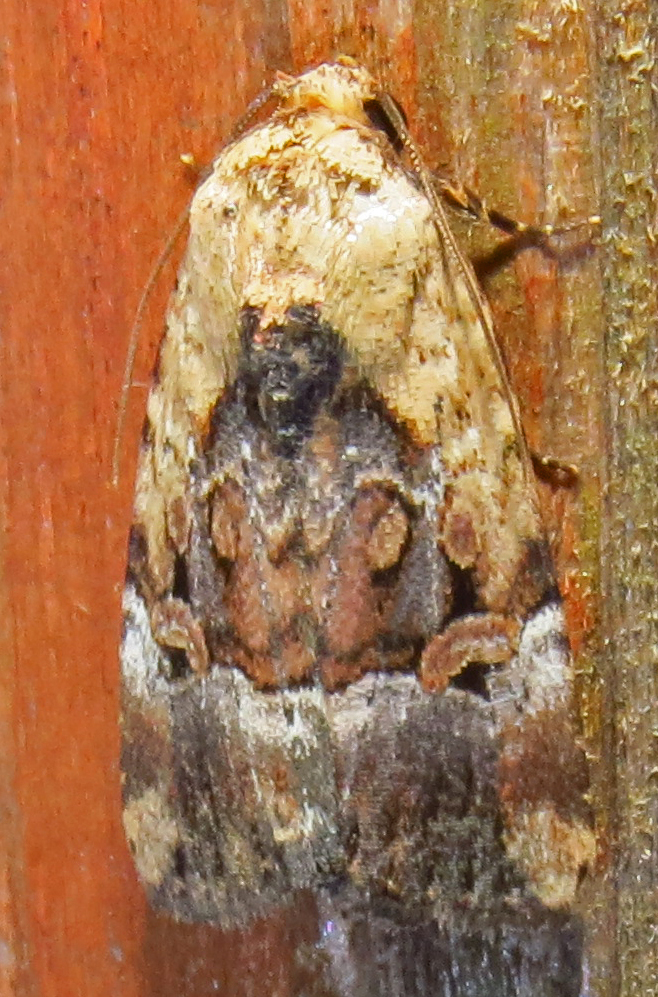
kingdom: Animalia
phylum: Arthropoda
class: Insecta
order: Lepidoptera
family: Noctuidae
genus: Elaphria
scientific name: Elaphria chalcedonia
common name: Chalcedony midget
